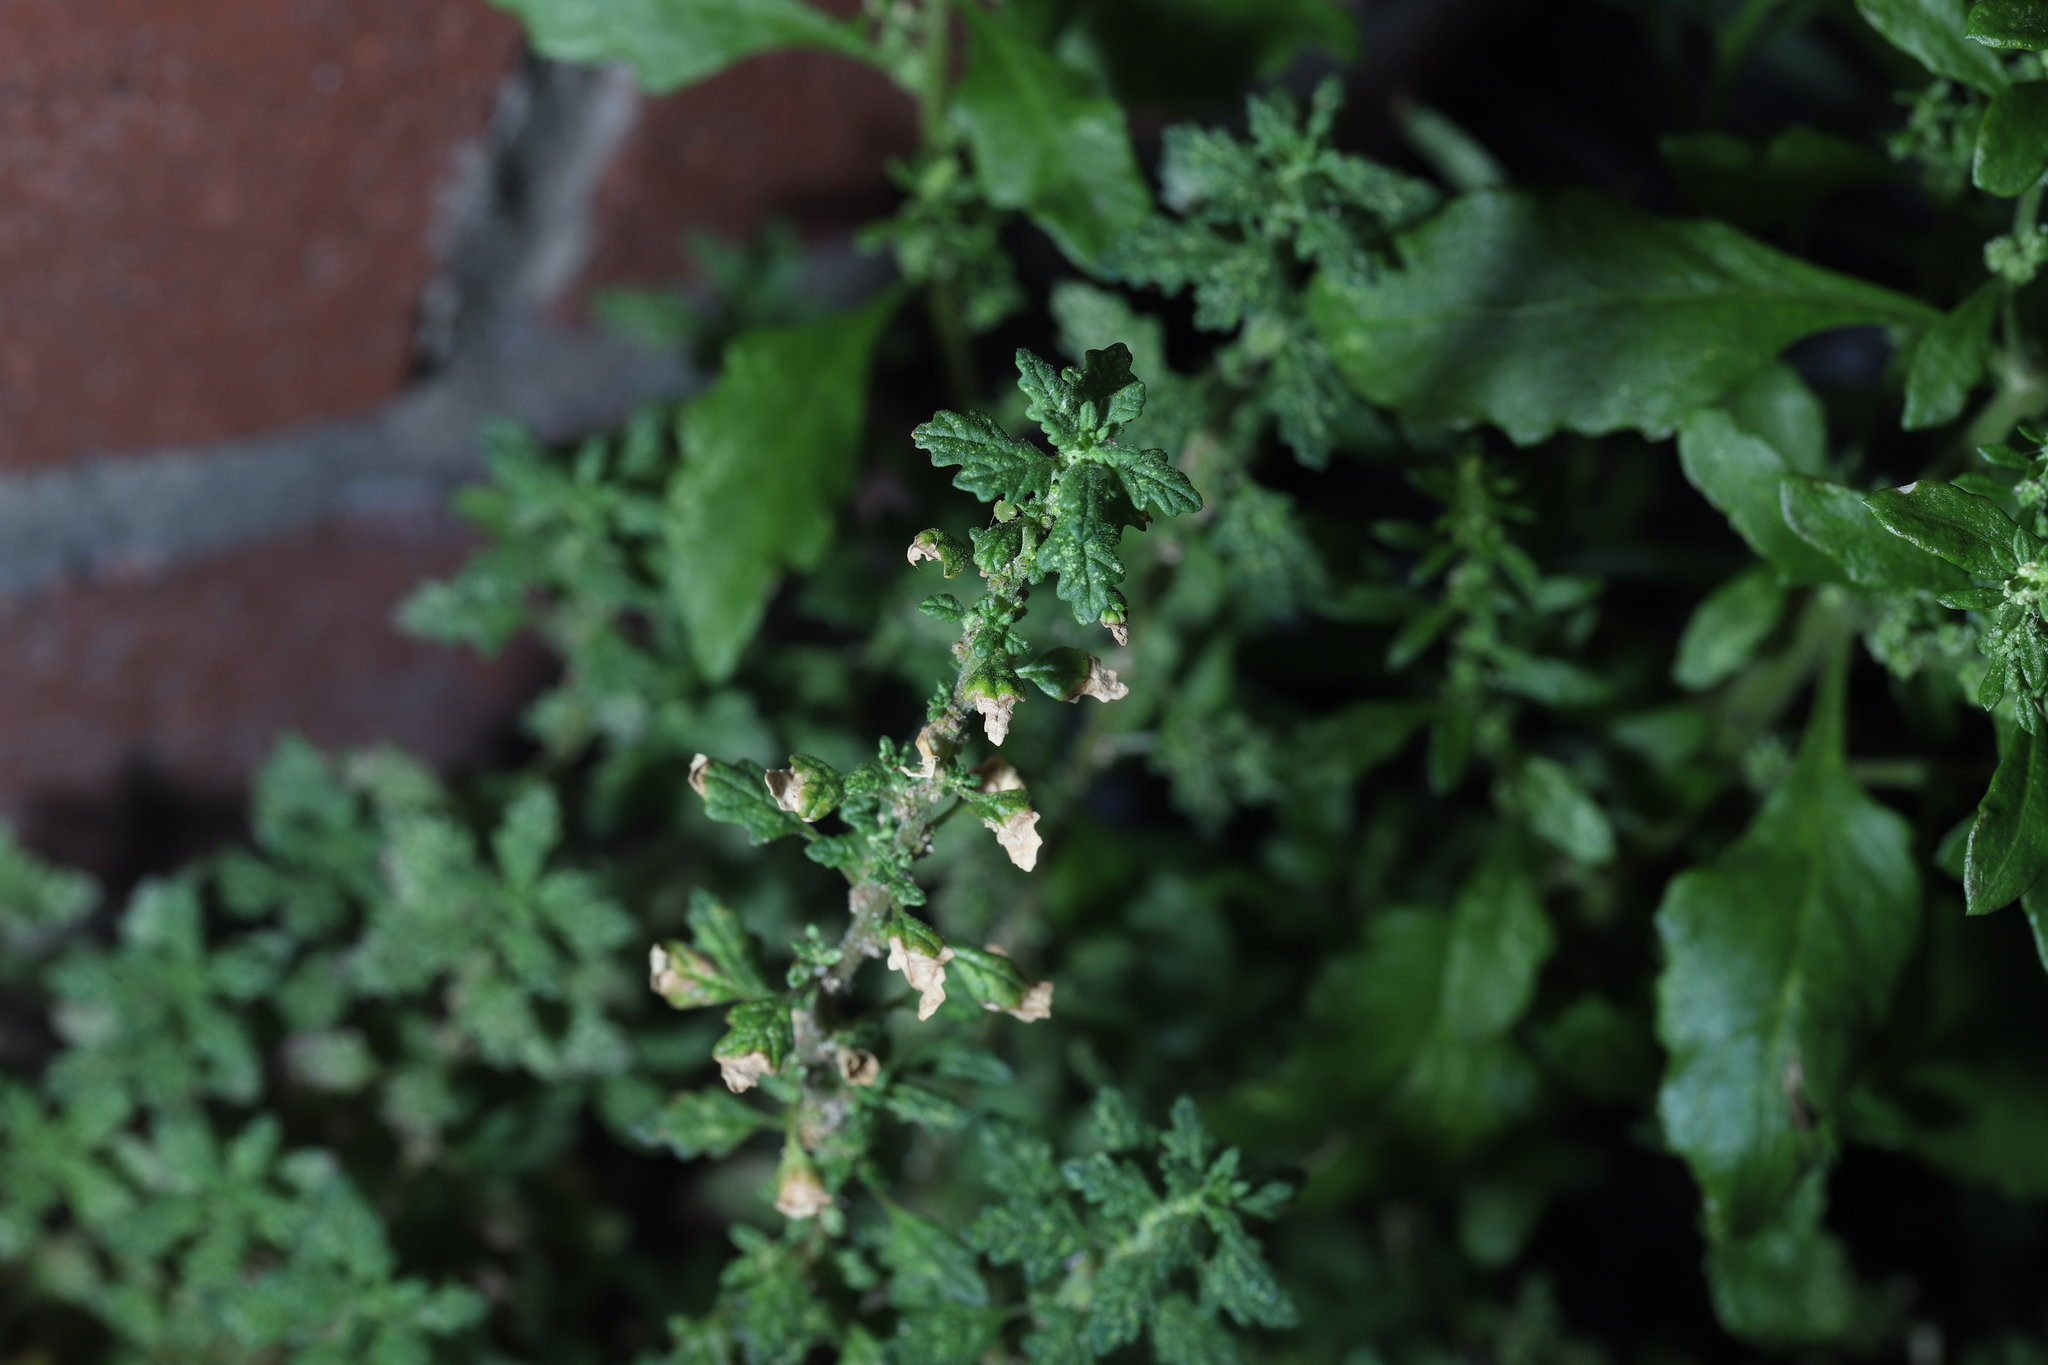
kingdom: Plantae
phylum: Tracheophyta
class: Magnoliopsida
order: Caryophyllales
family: Amaranthaceae
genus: Dysphania
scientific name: Dysphania pumilio
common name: Clammy goosefoot
